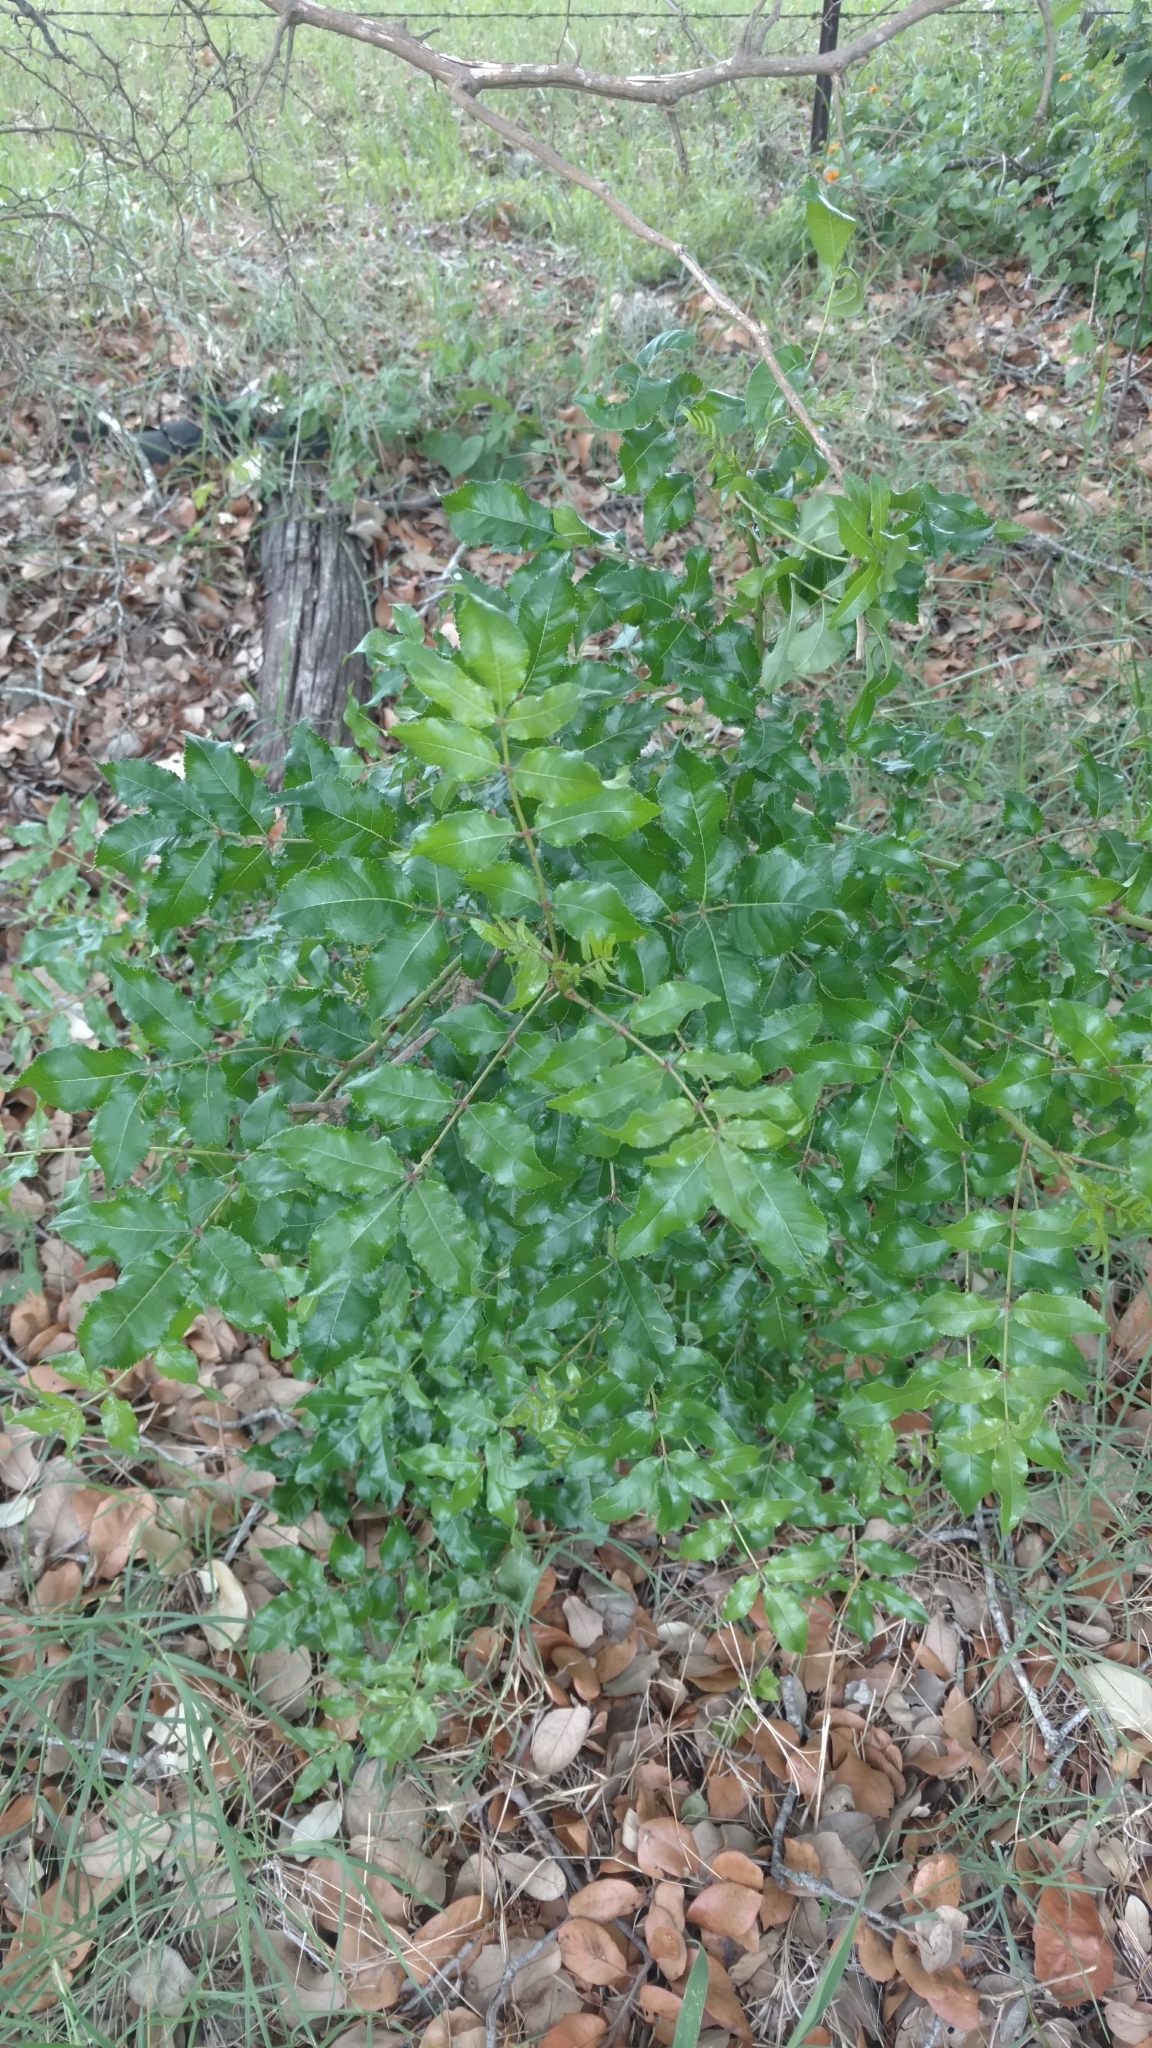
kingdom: Plantae
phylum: Tracheophyta
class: Magnoliopsida
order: Sapindales
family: Rutaceae
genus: Zanthoxylum
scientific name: Zanthoxylum clava-herculis
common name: Hercules'-club
